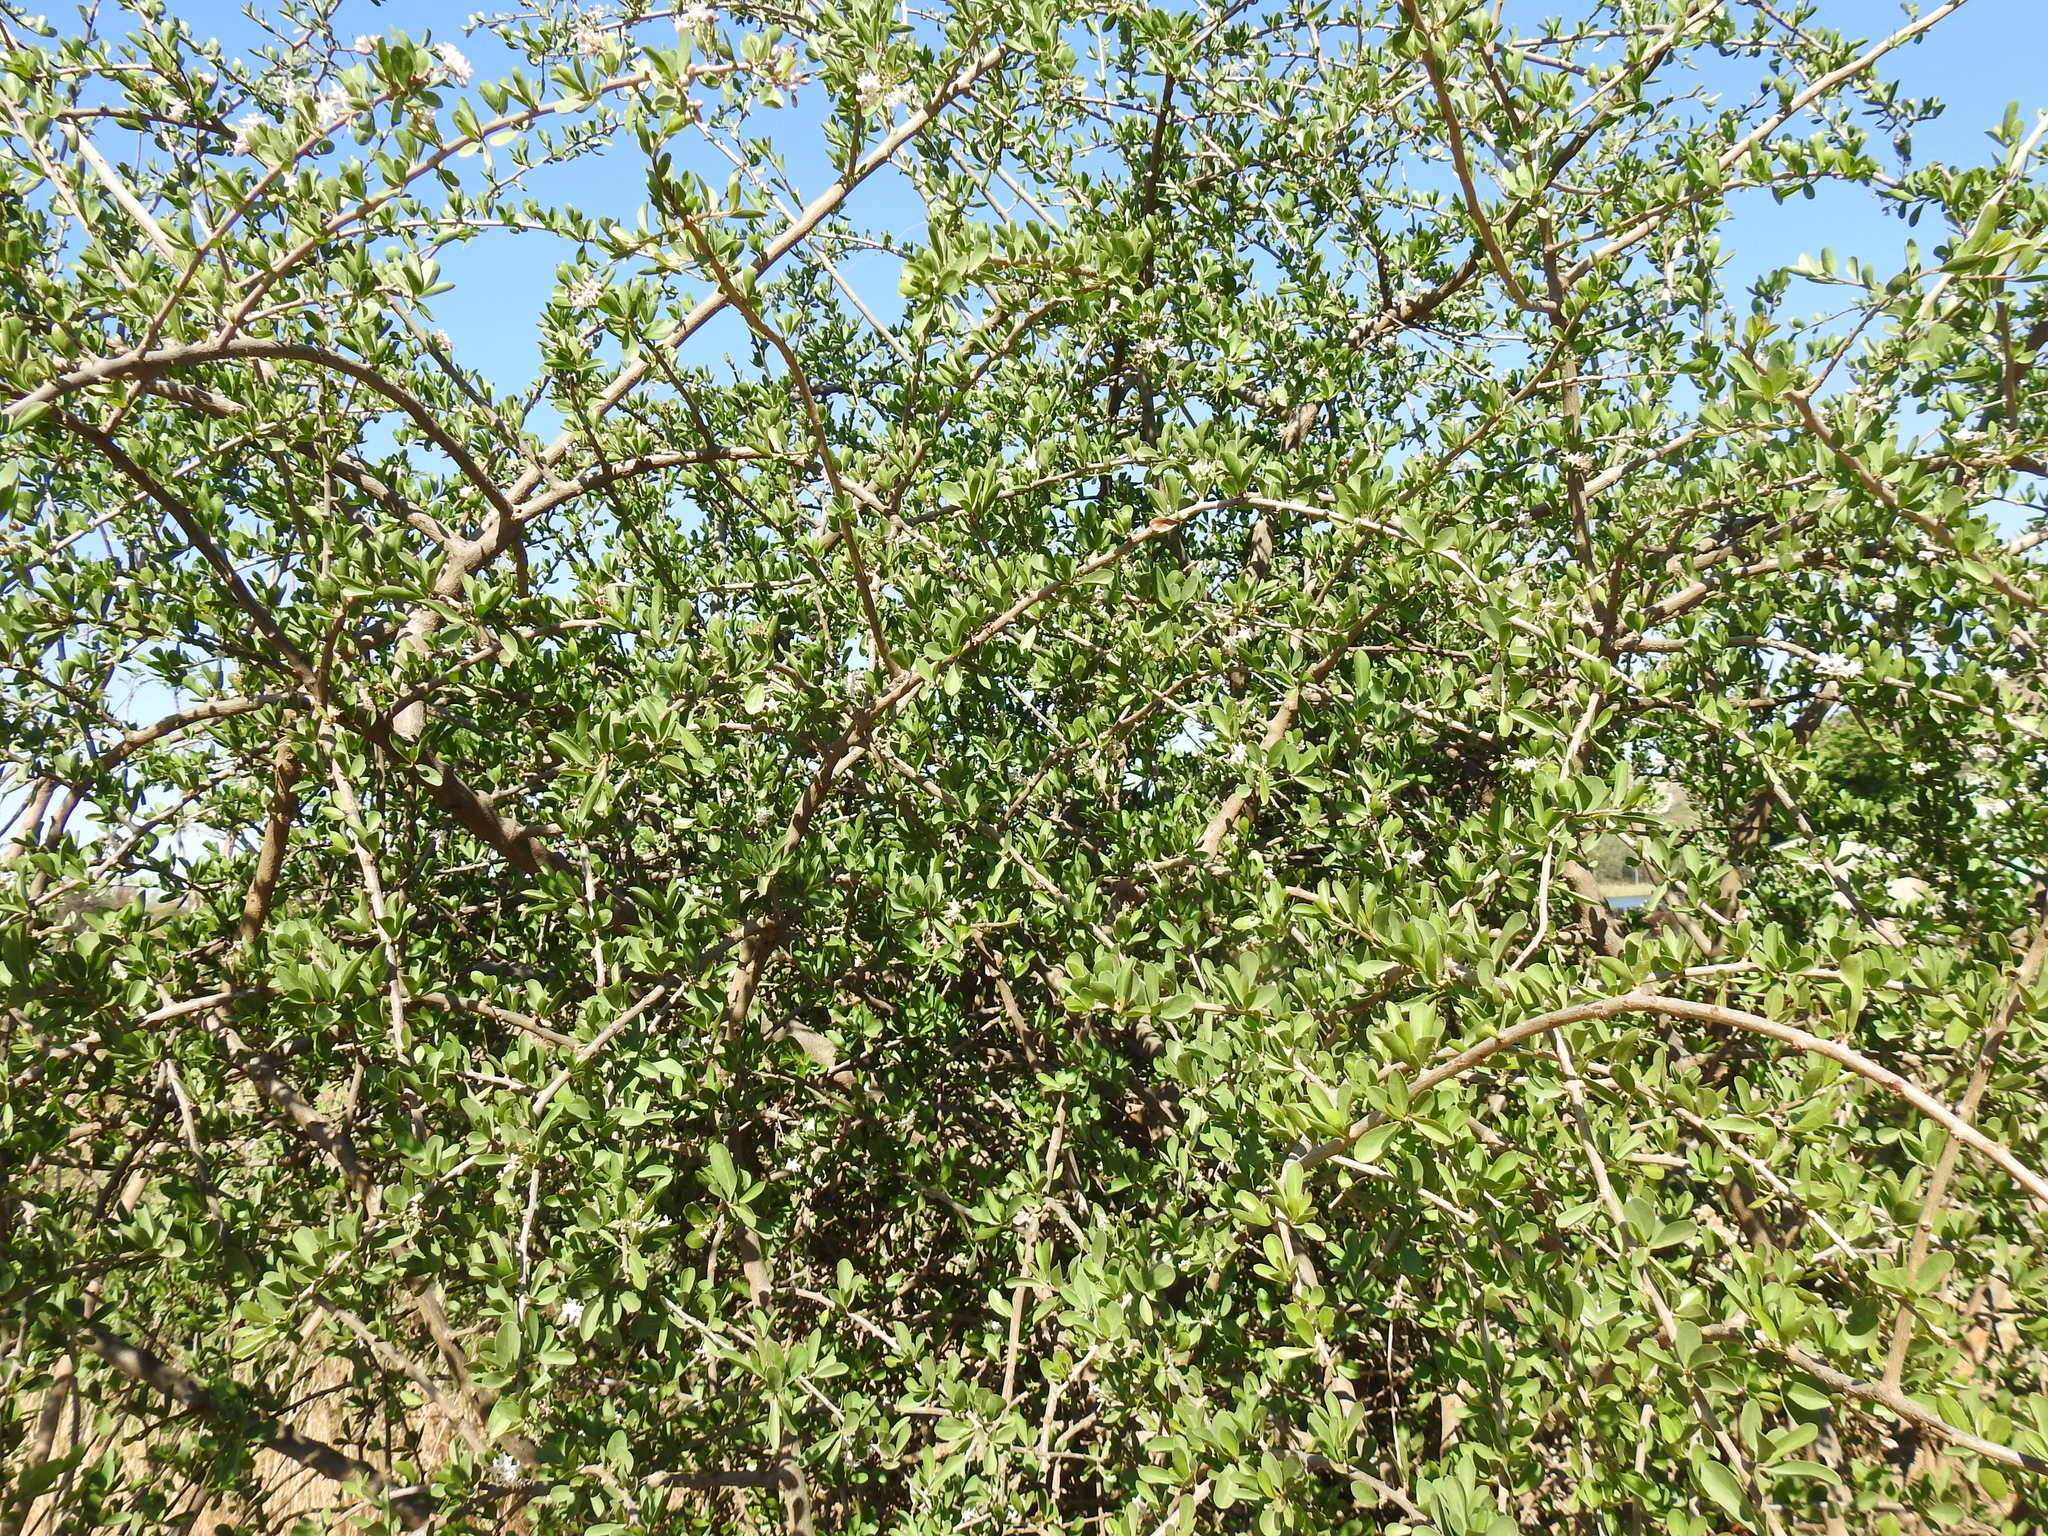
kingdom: Plantae
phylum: Tracheophyta
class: Magnoliopsida
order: Boraginales
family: Ehretiaceae
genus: Ehretia
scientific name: Ehretia rigida
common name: Cape lilac
